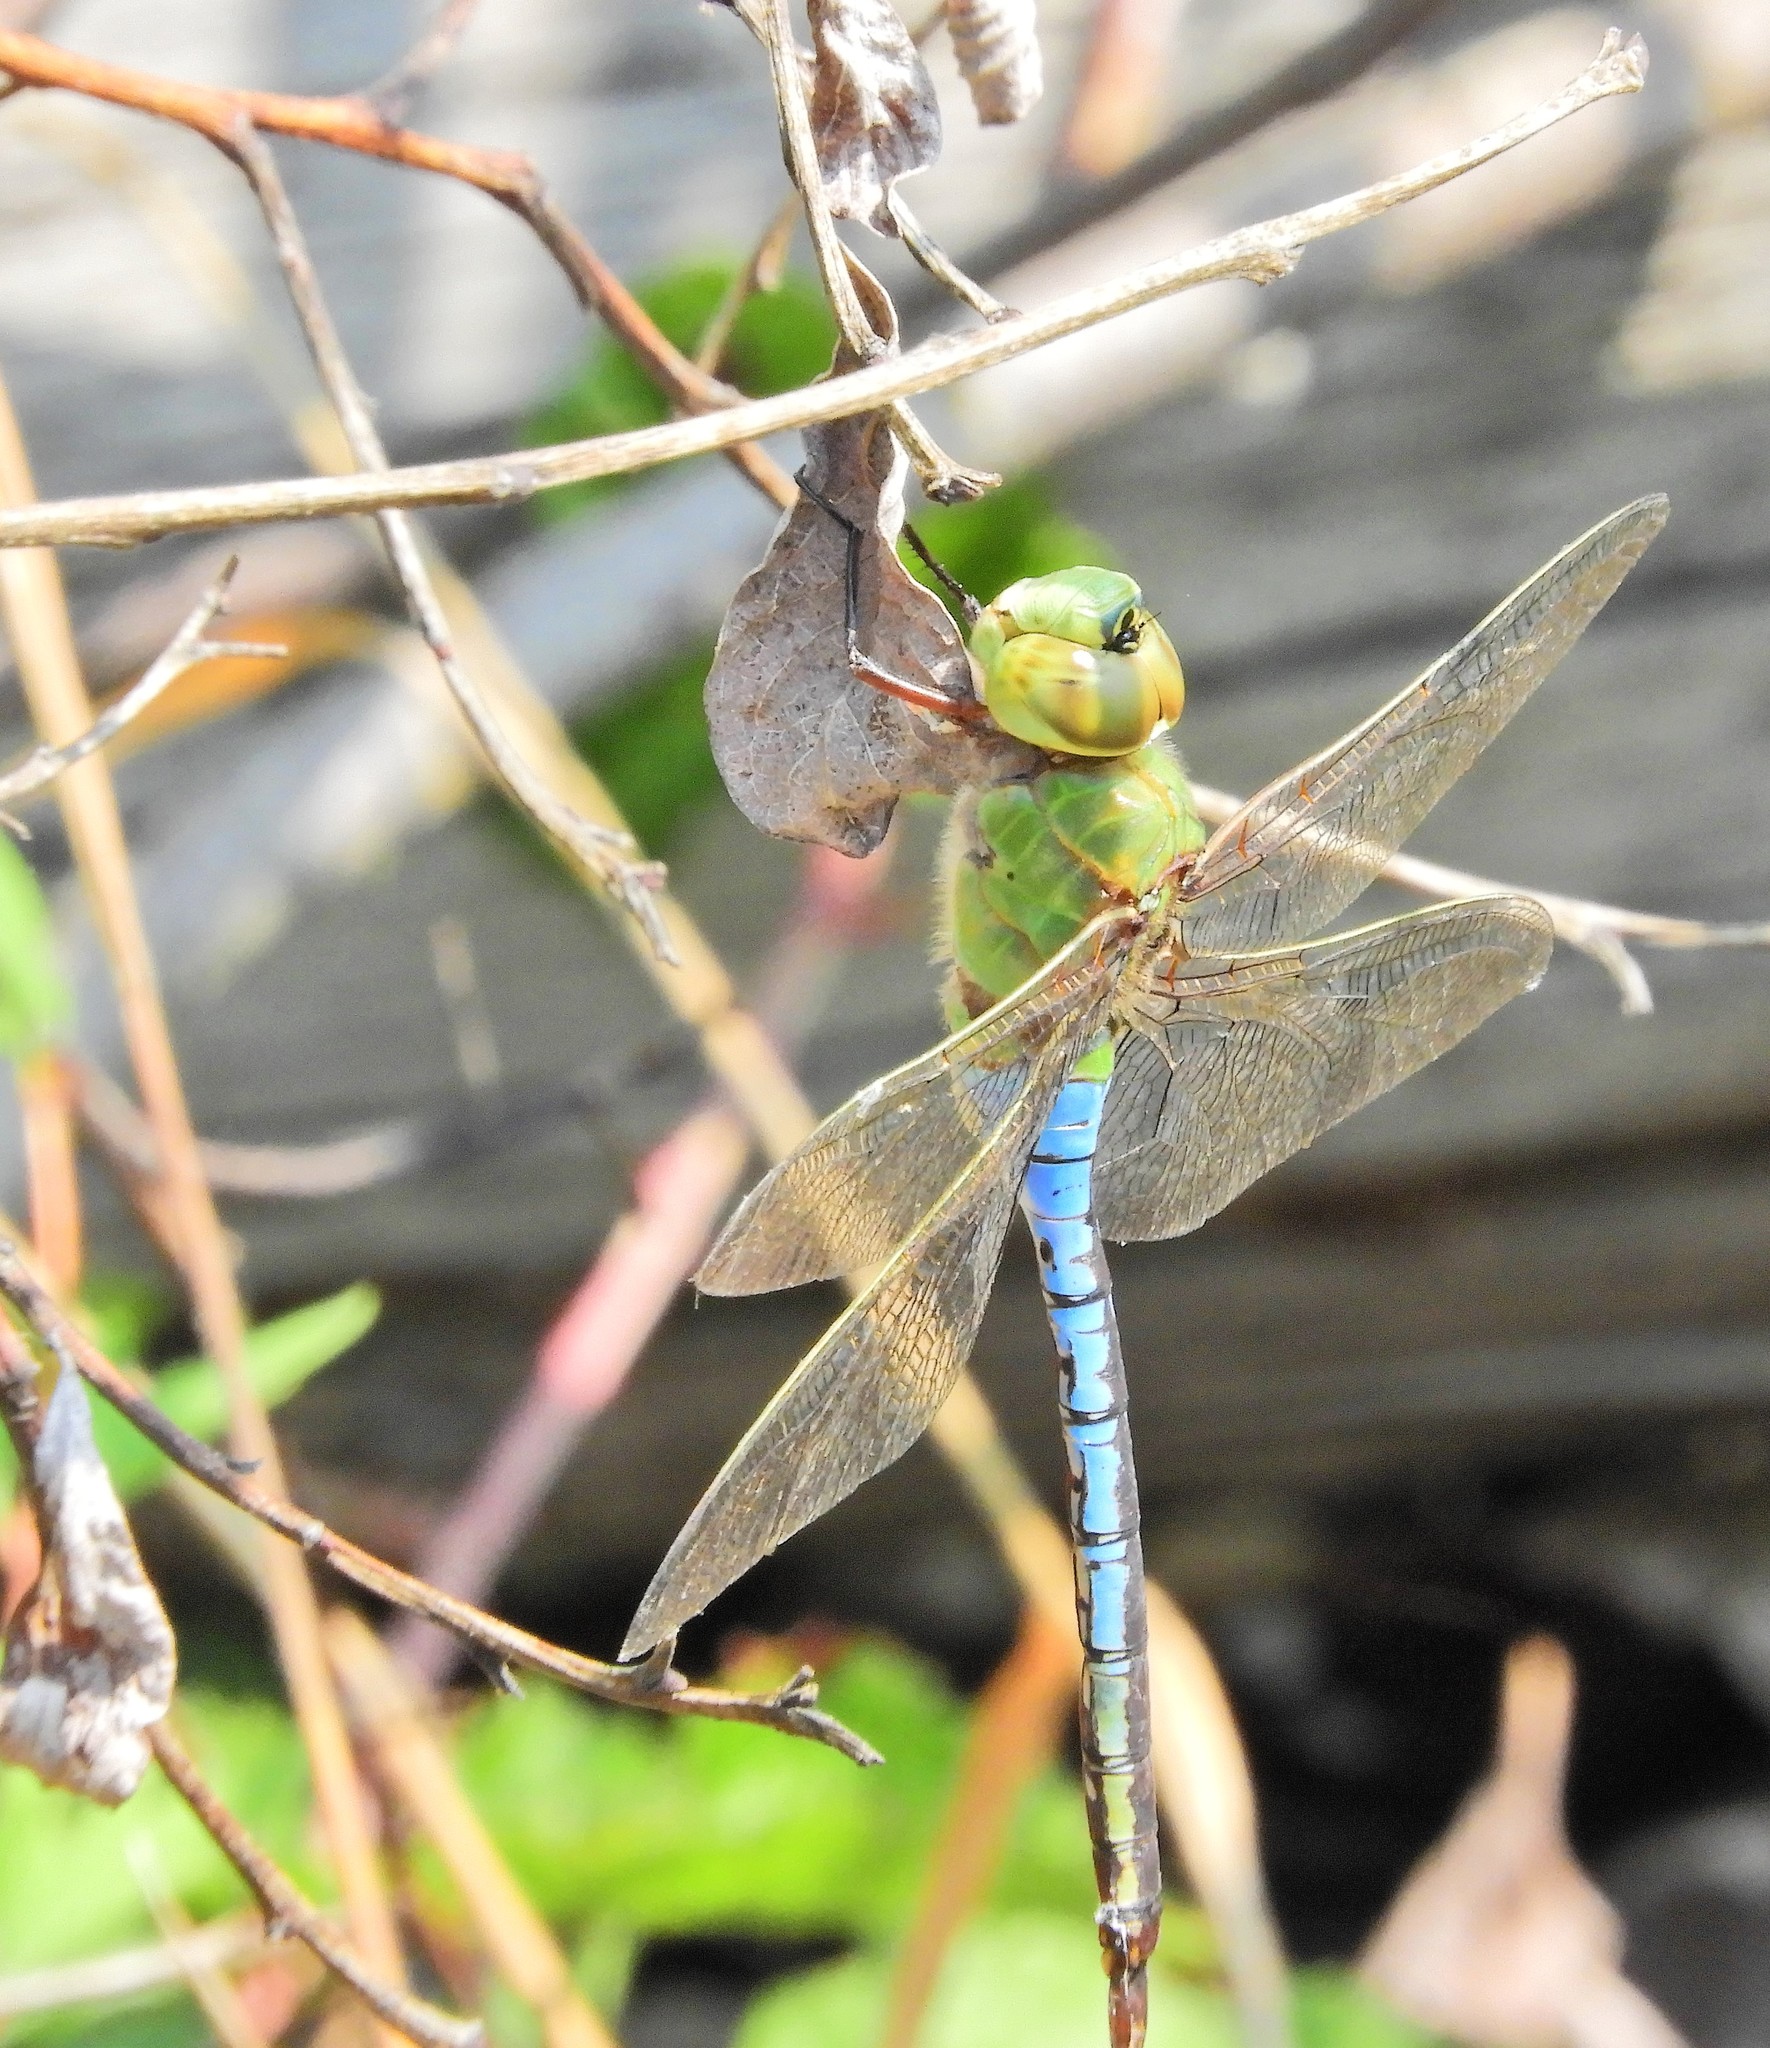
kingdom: Animalia
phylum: Arthropoda
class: Insecta
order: Odonata
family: Aeshnidae
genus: Anax
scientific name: Anax junius
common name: Common green darner
